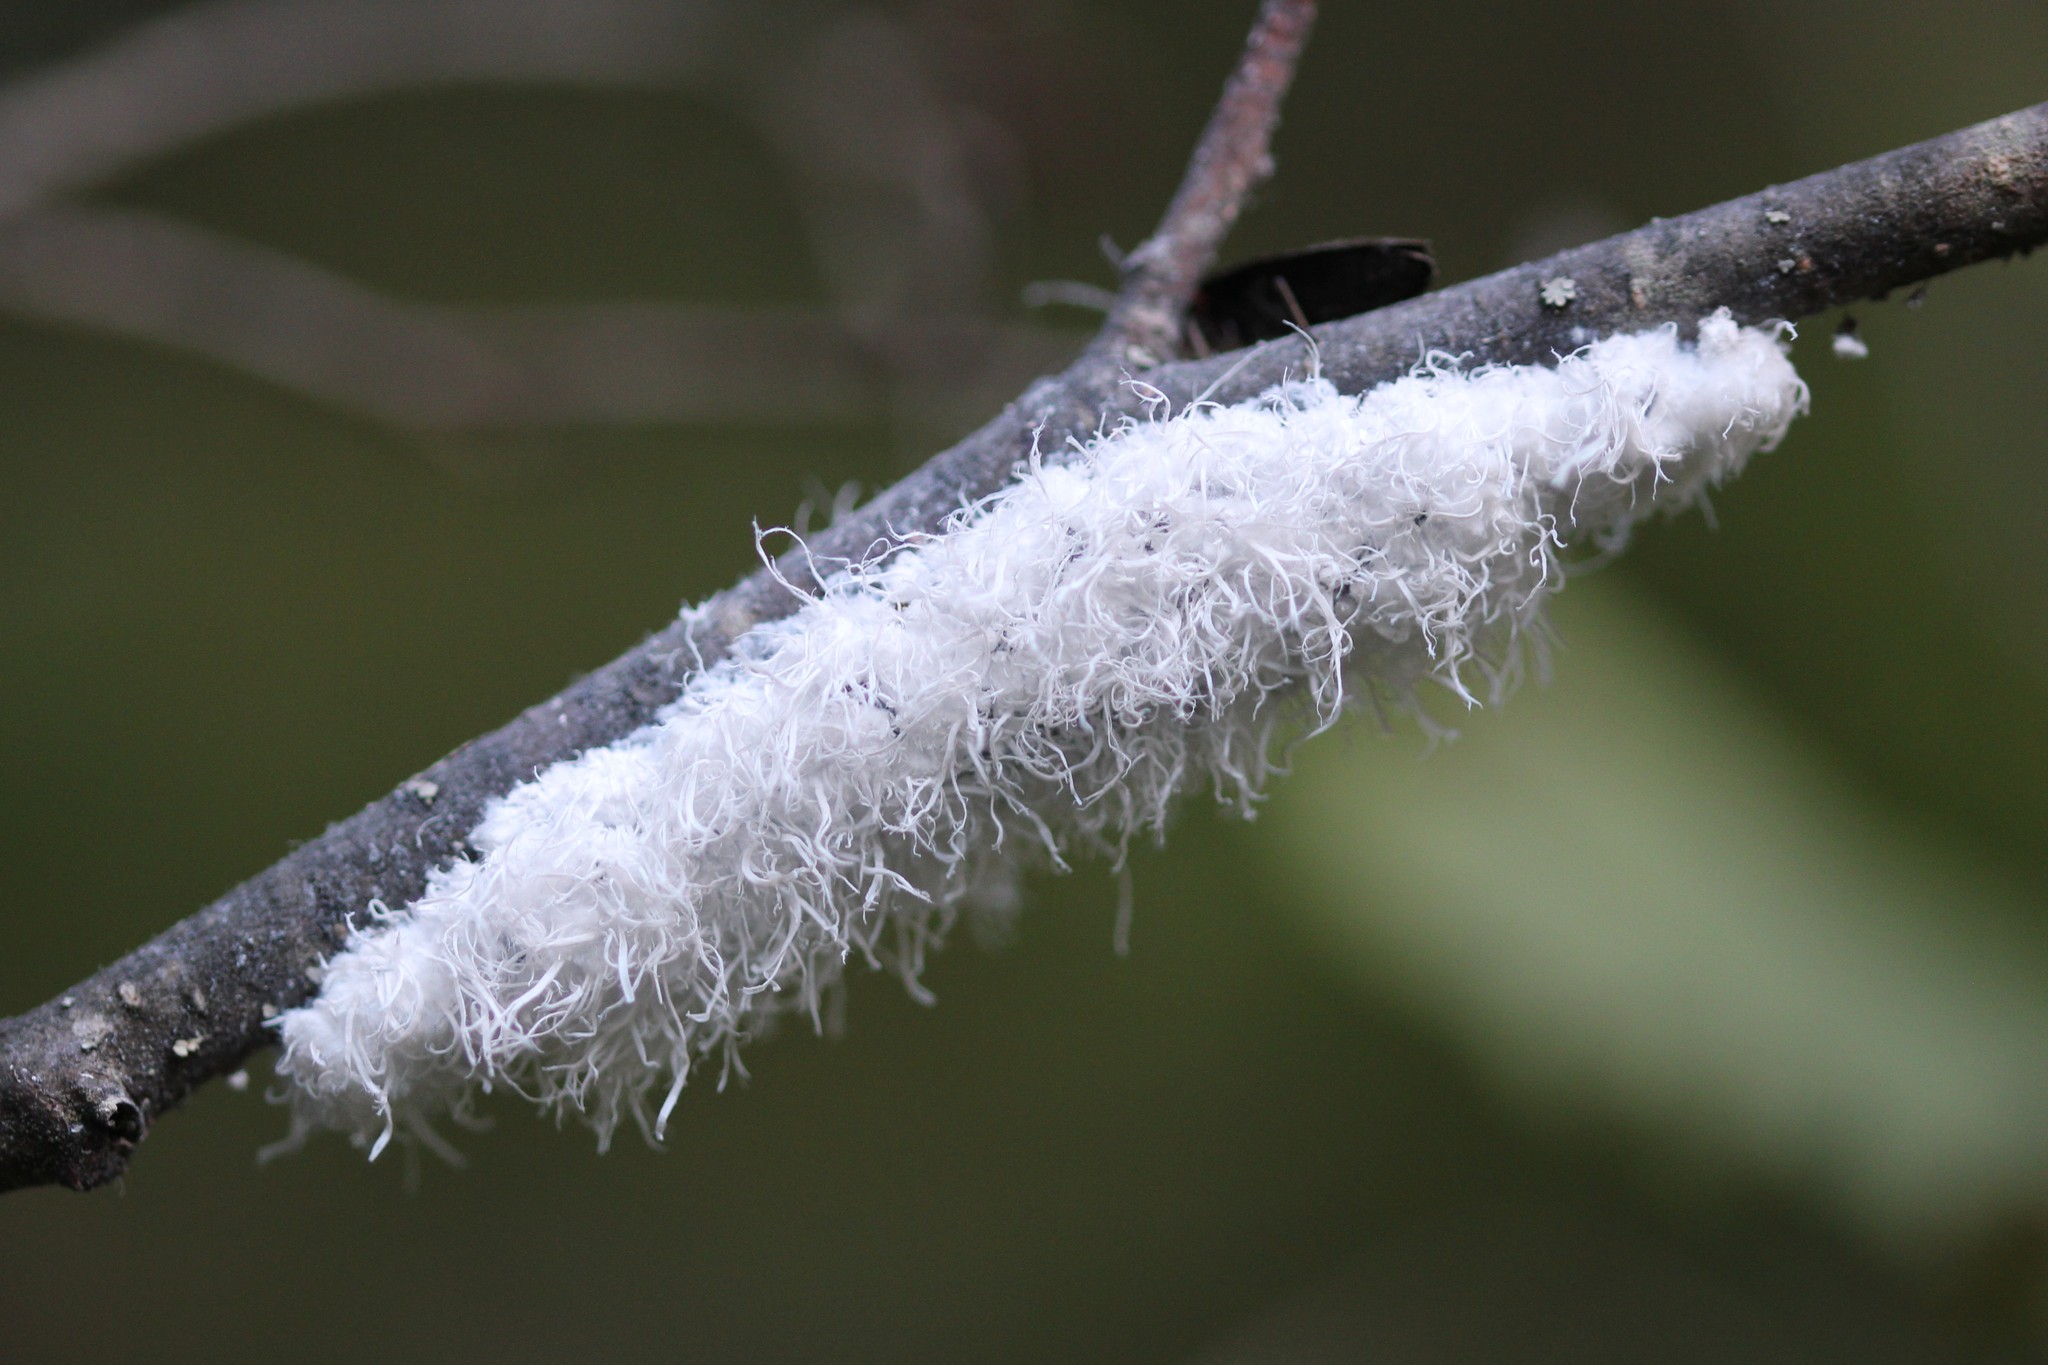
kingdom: Animalia
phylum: Arthropoda
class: Insecta
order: Hemiptera
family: Aphididae
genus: Prociphilus
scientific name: Prociphilus tessellatus
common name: Woolly alder aphid
